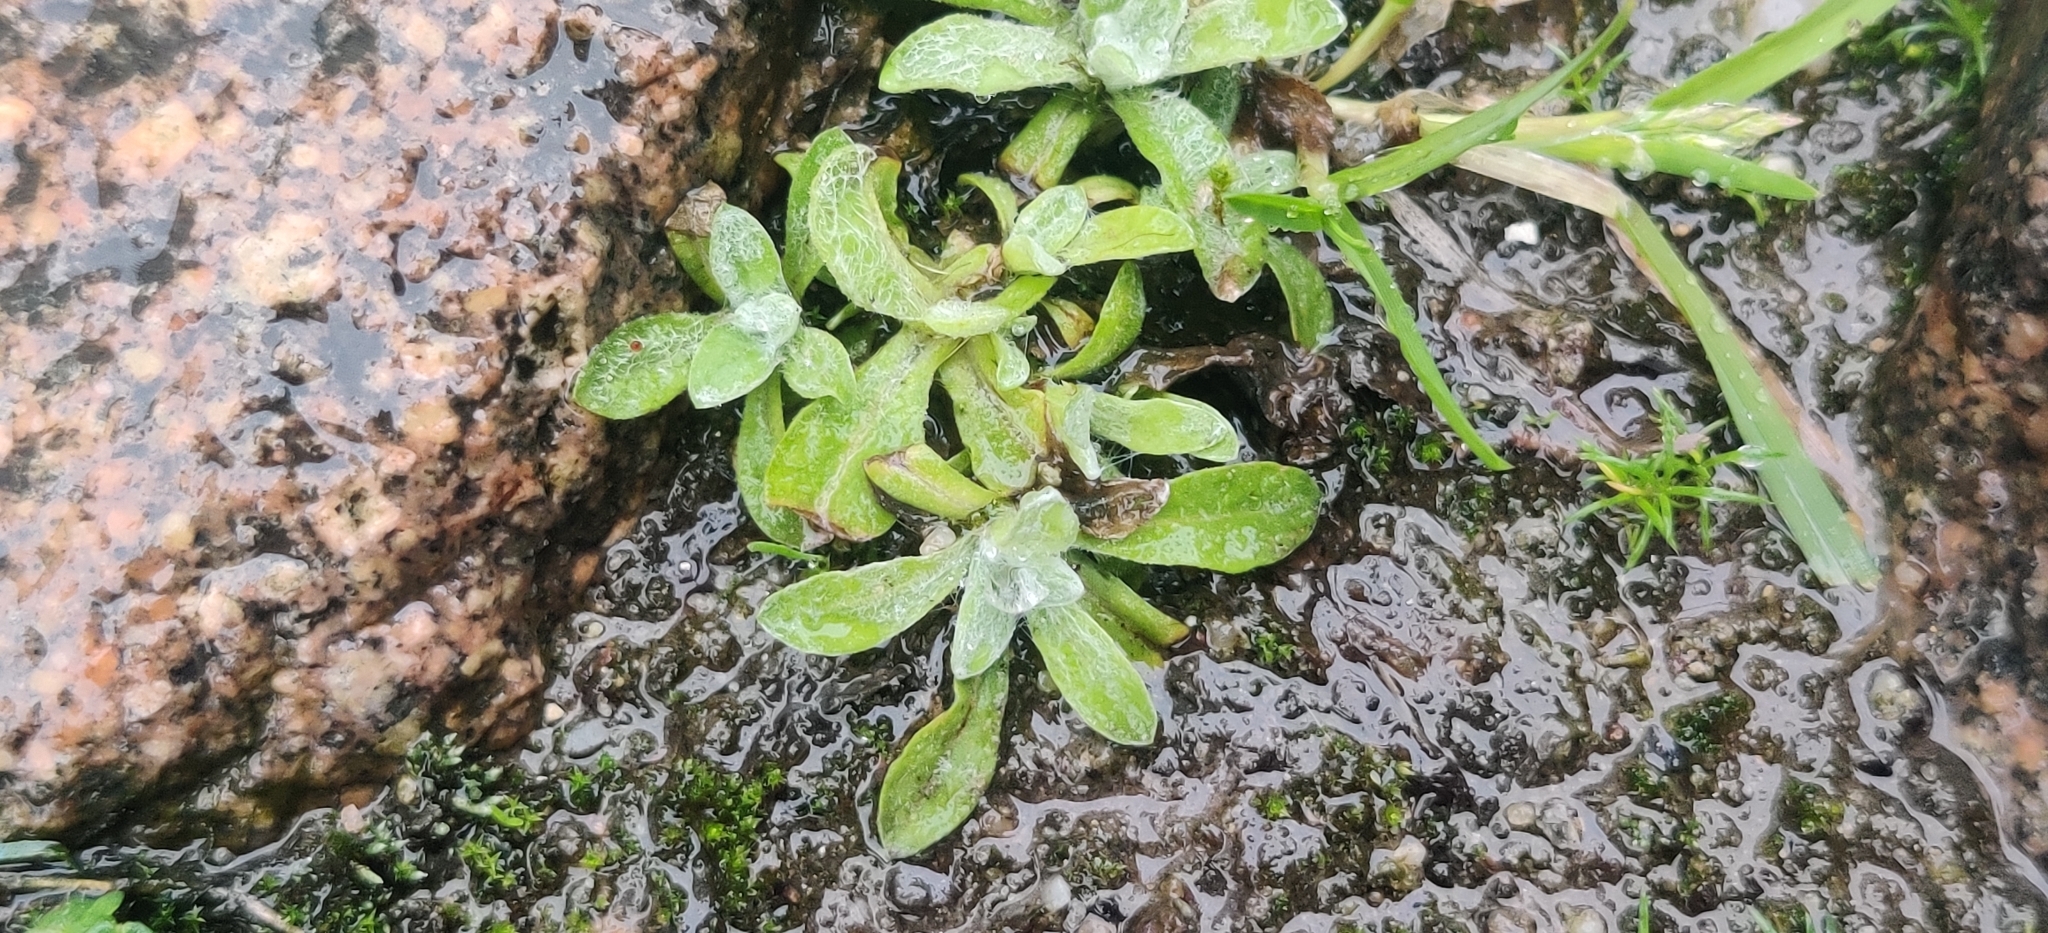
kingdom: Plantae
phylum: Tracheophyta
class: Magnoliopsida
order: Asterales
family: Asteraceae
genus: Helichrysum
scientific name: Helichrysum luteoalbum
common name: Daisy
